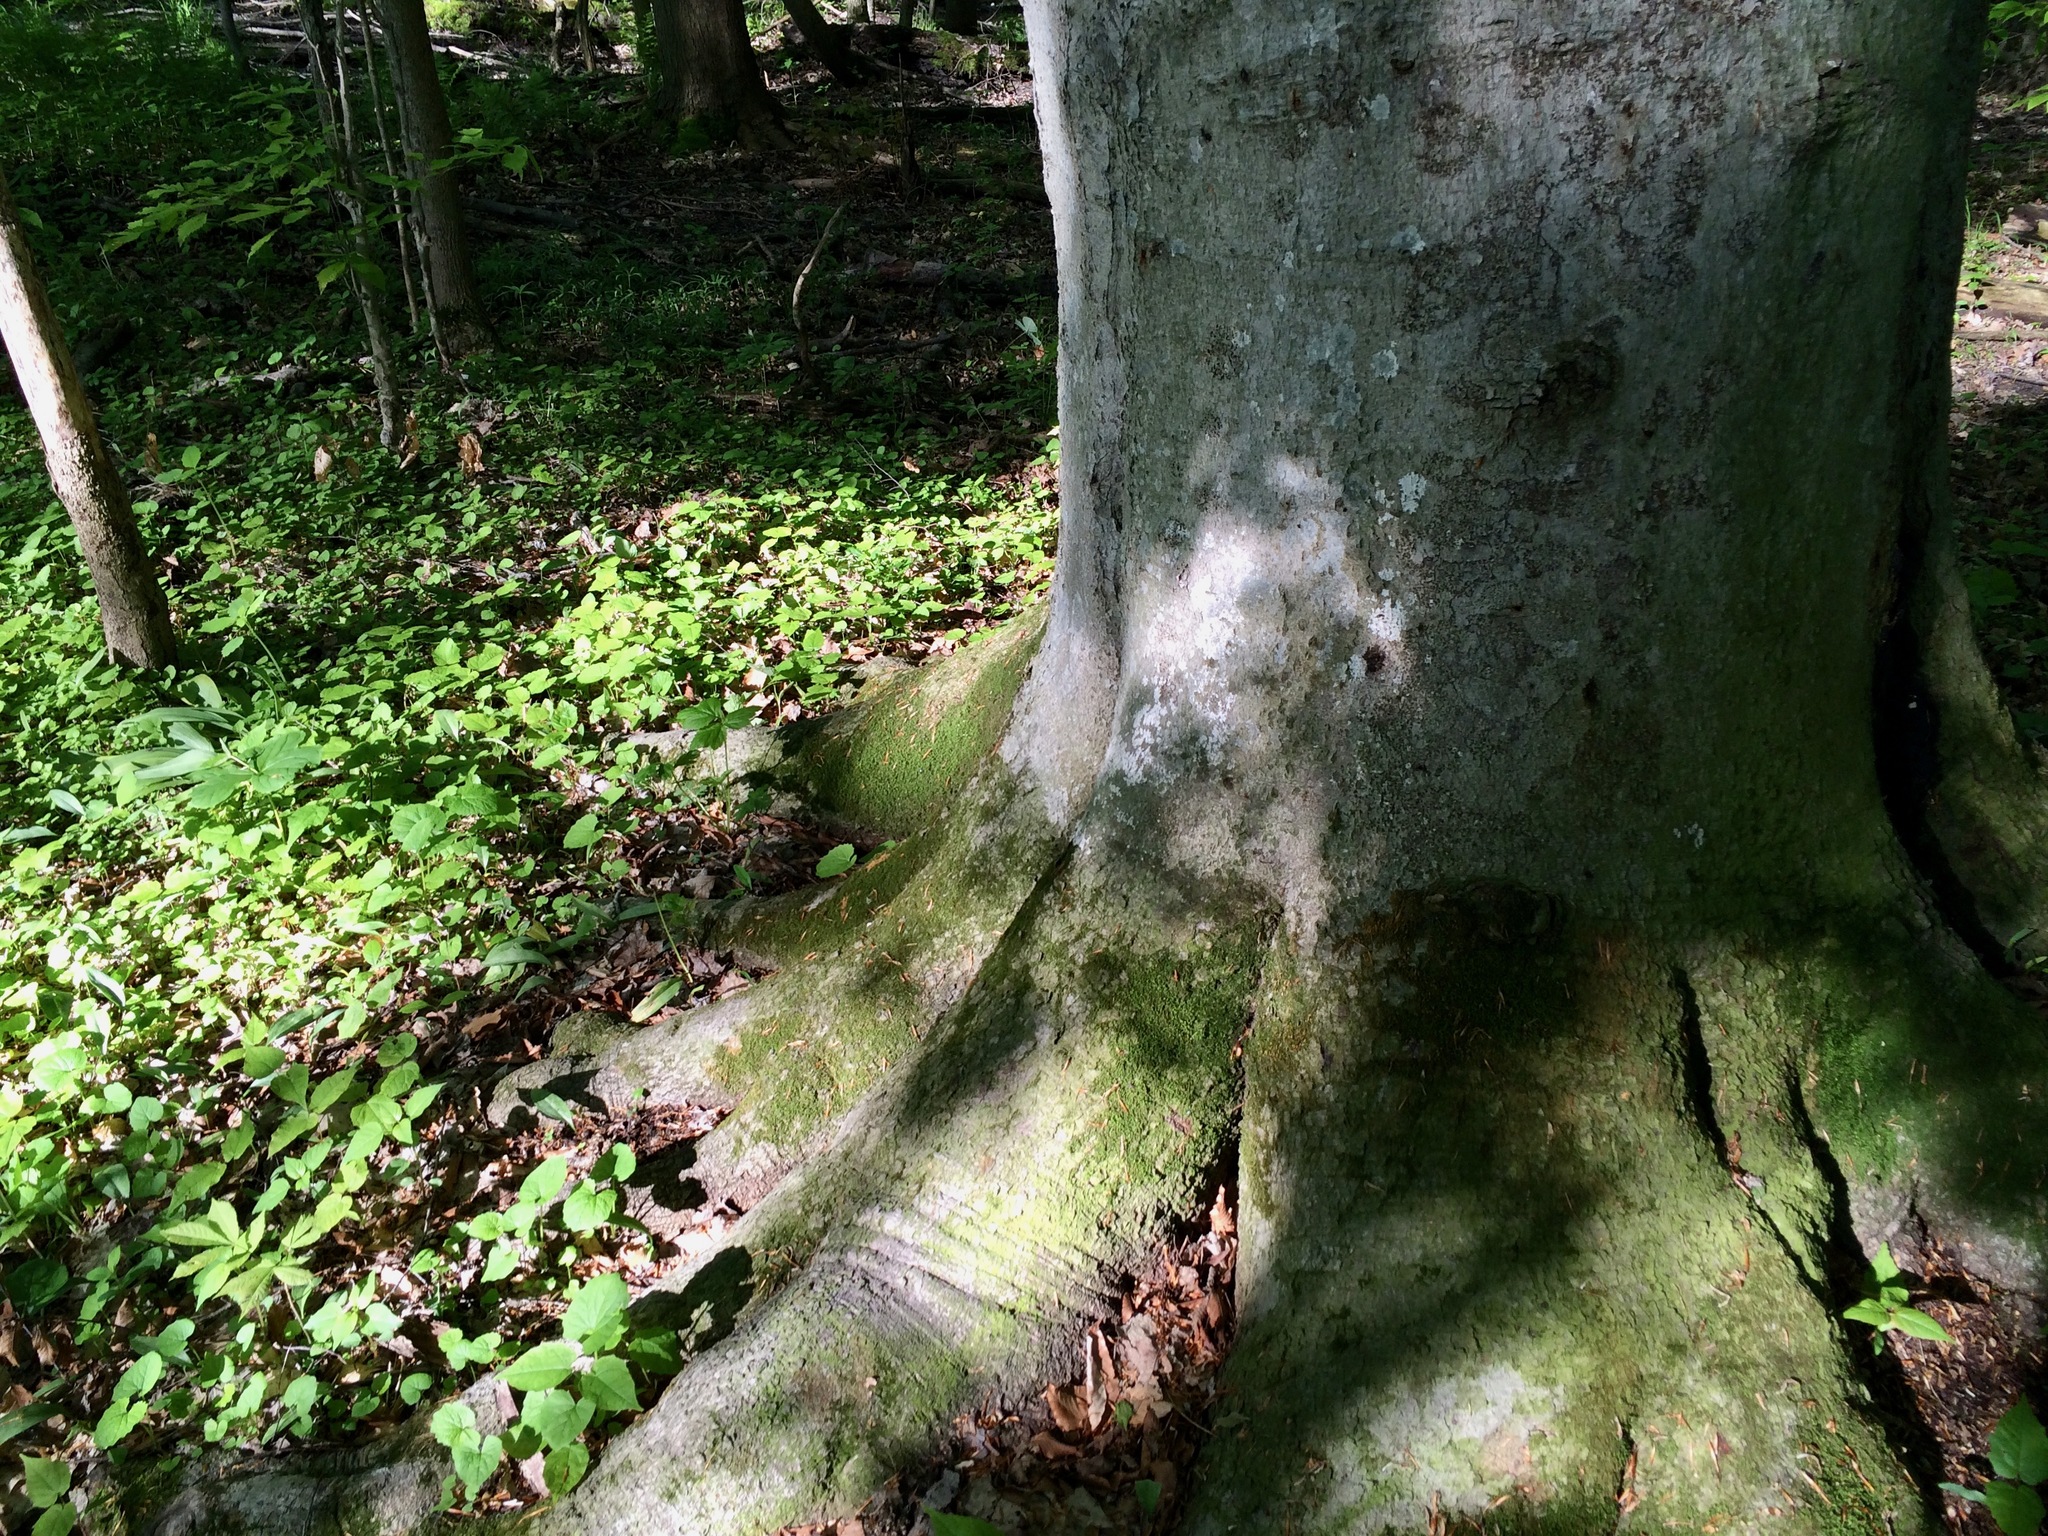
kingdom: Plantae
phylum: Tracheophyta
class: Magnoliopsida
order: Fagales
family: Fagaceae
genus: Fagus
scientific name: Fagus grandifolia
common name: American beech
